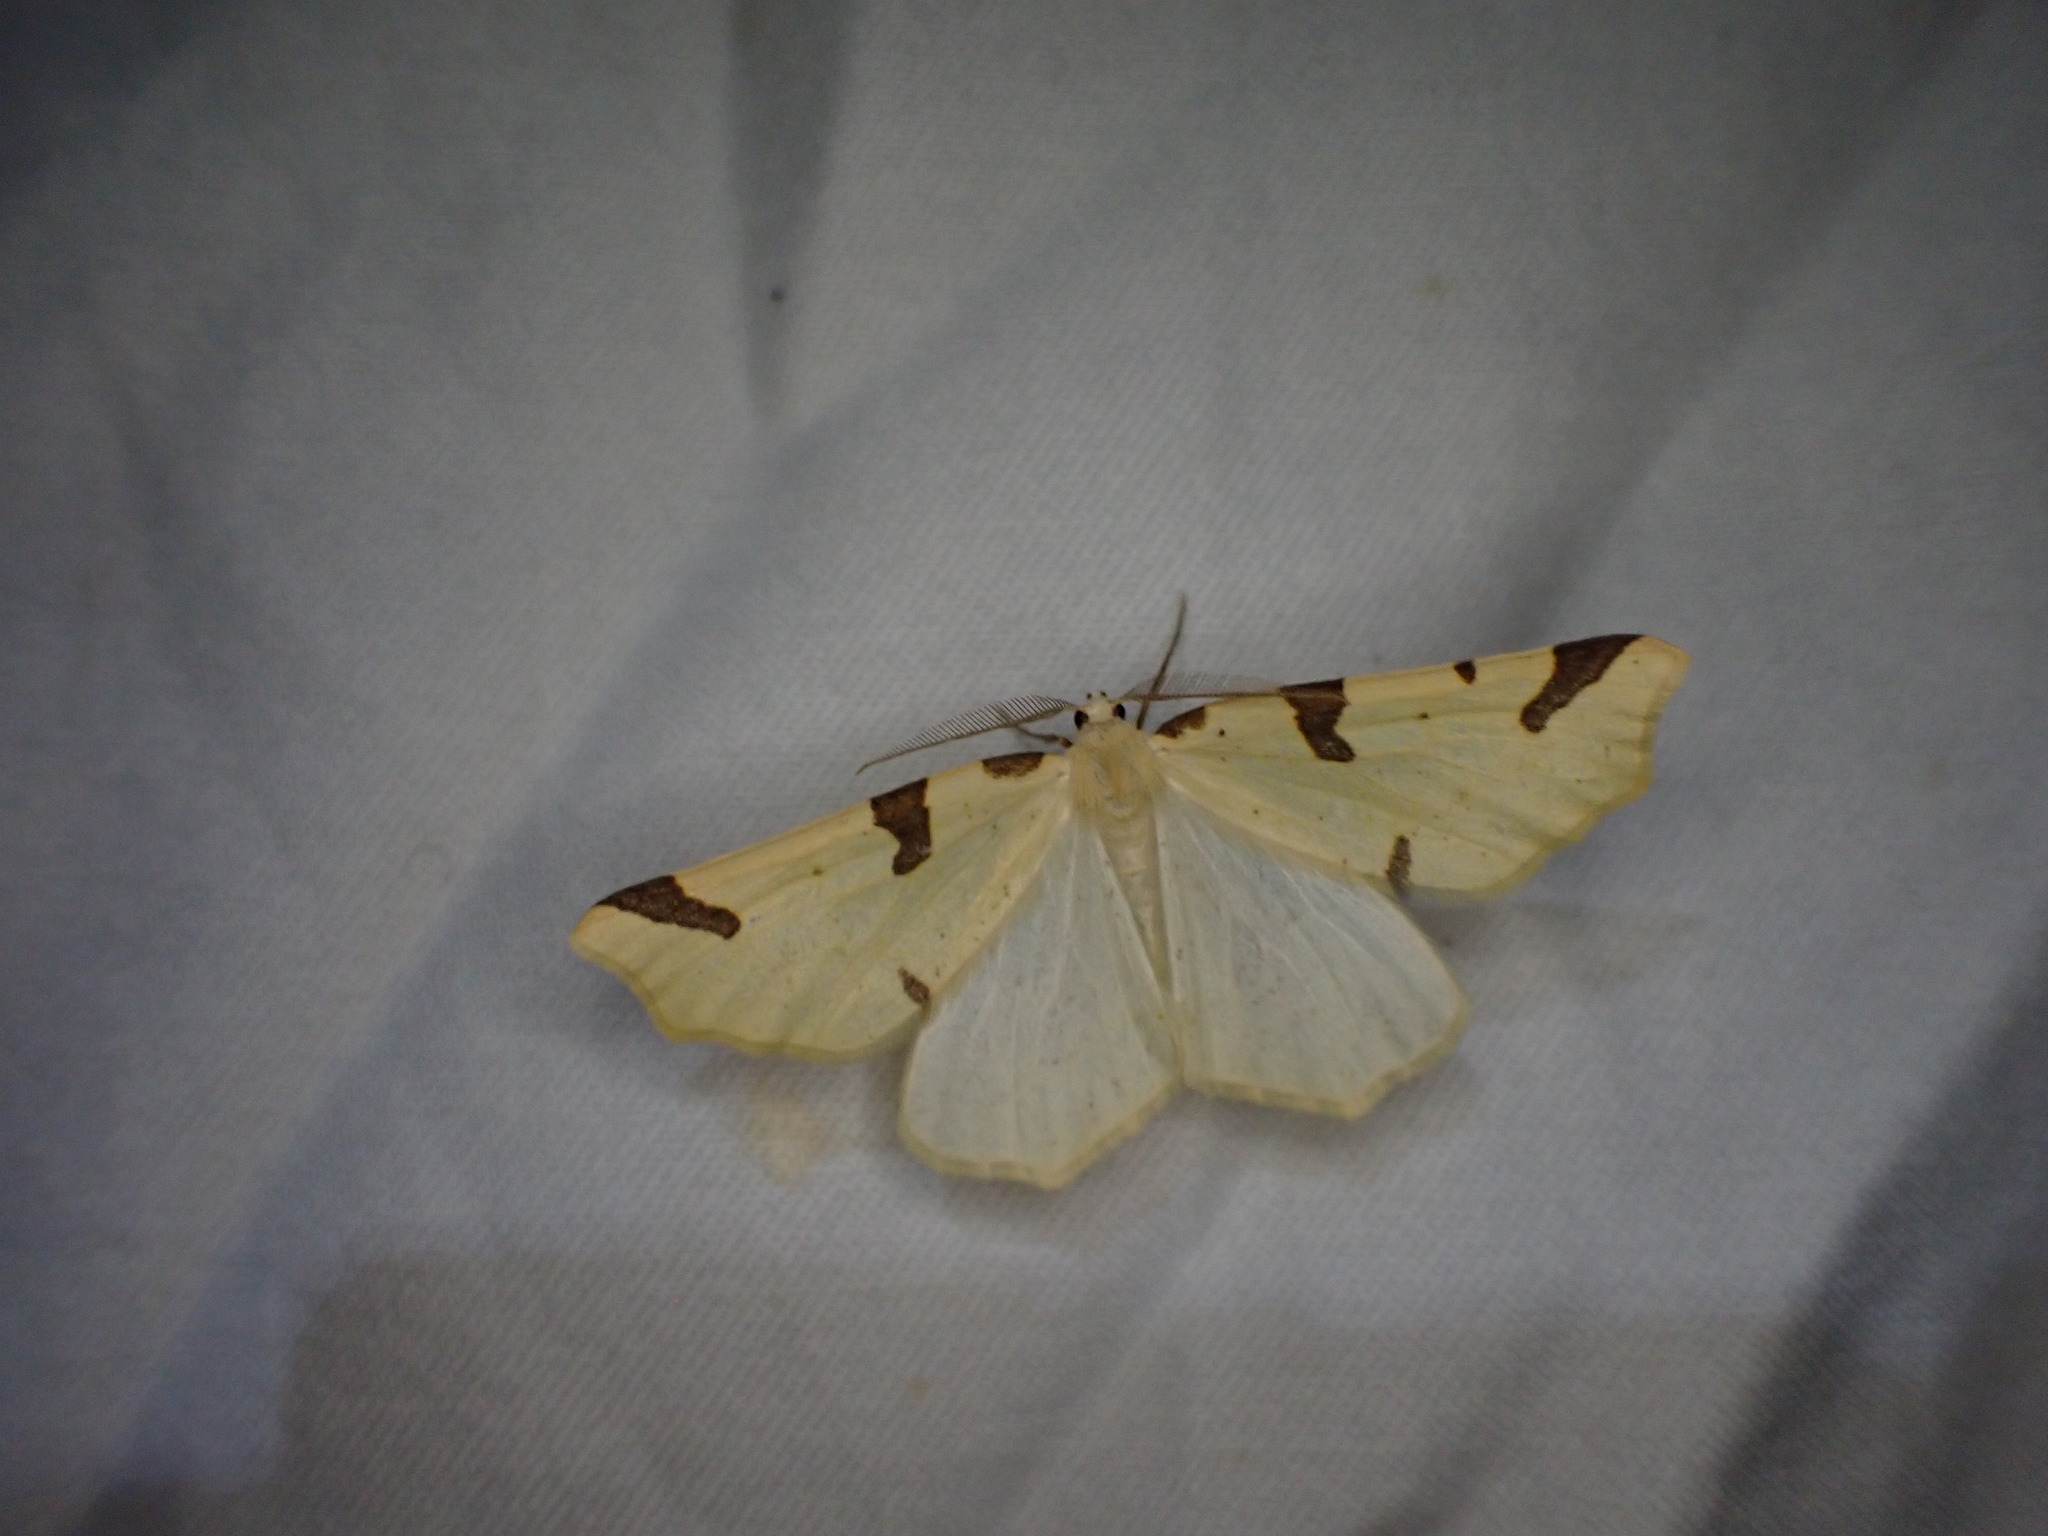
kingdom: Animalia
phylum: Arthropoda
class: Insecta
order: Lepidoptera
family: Geometridae
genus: Neoterpes
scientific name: Neoterpes trianguliferata
